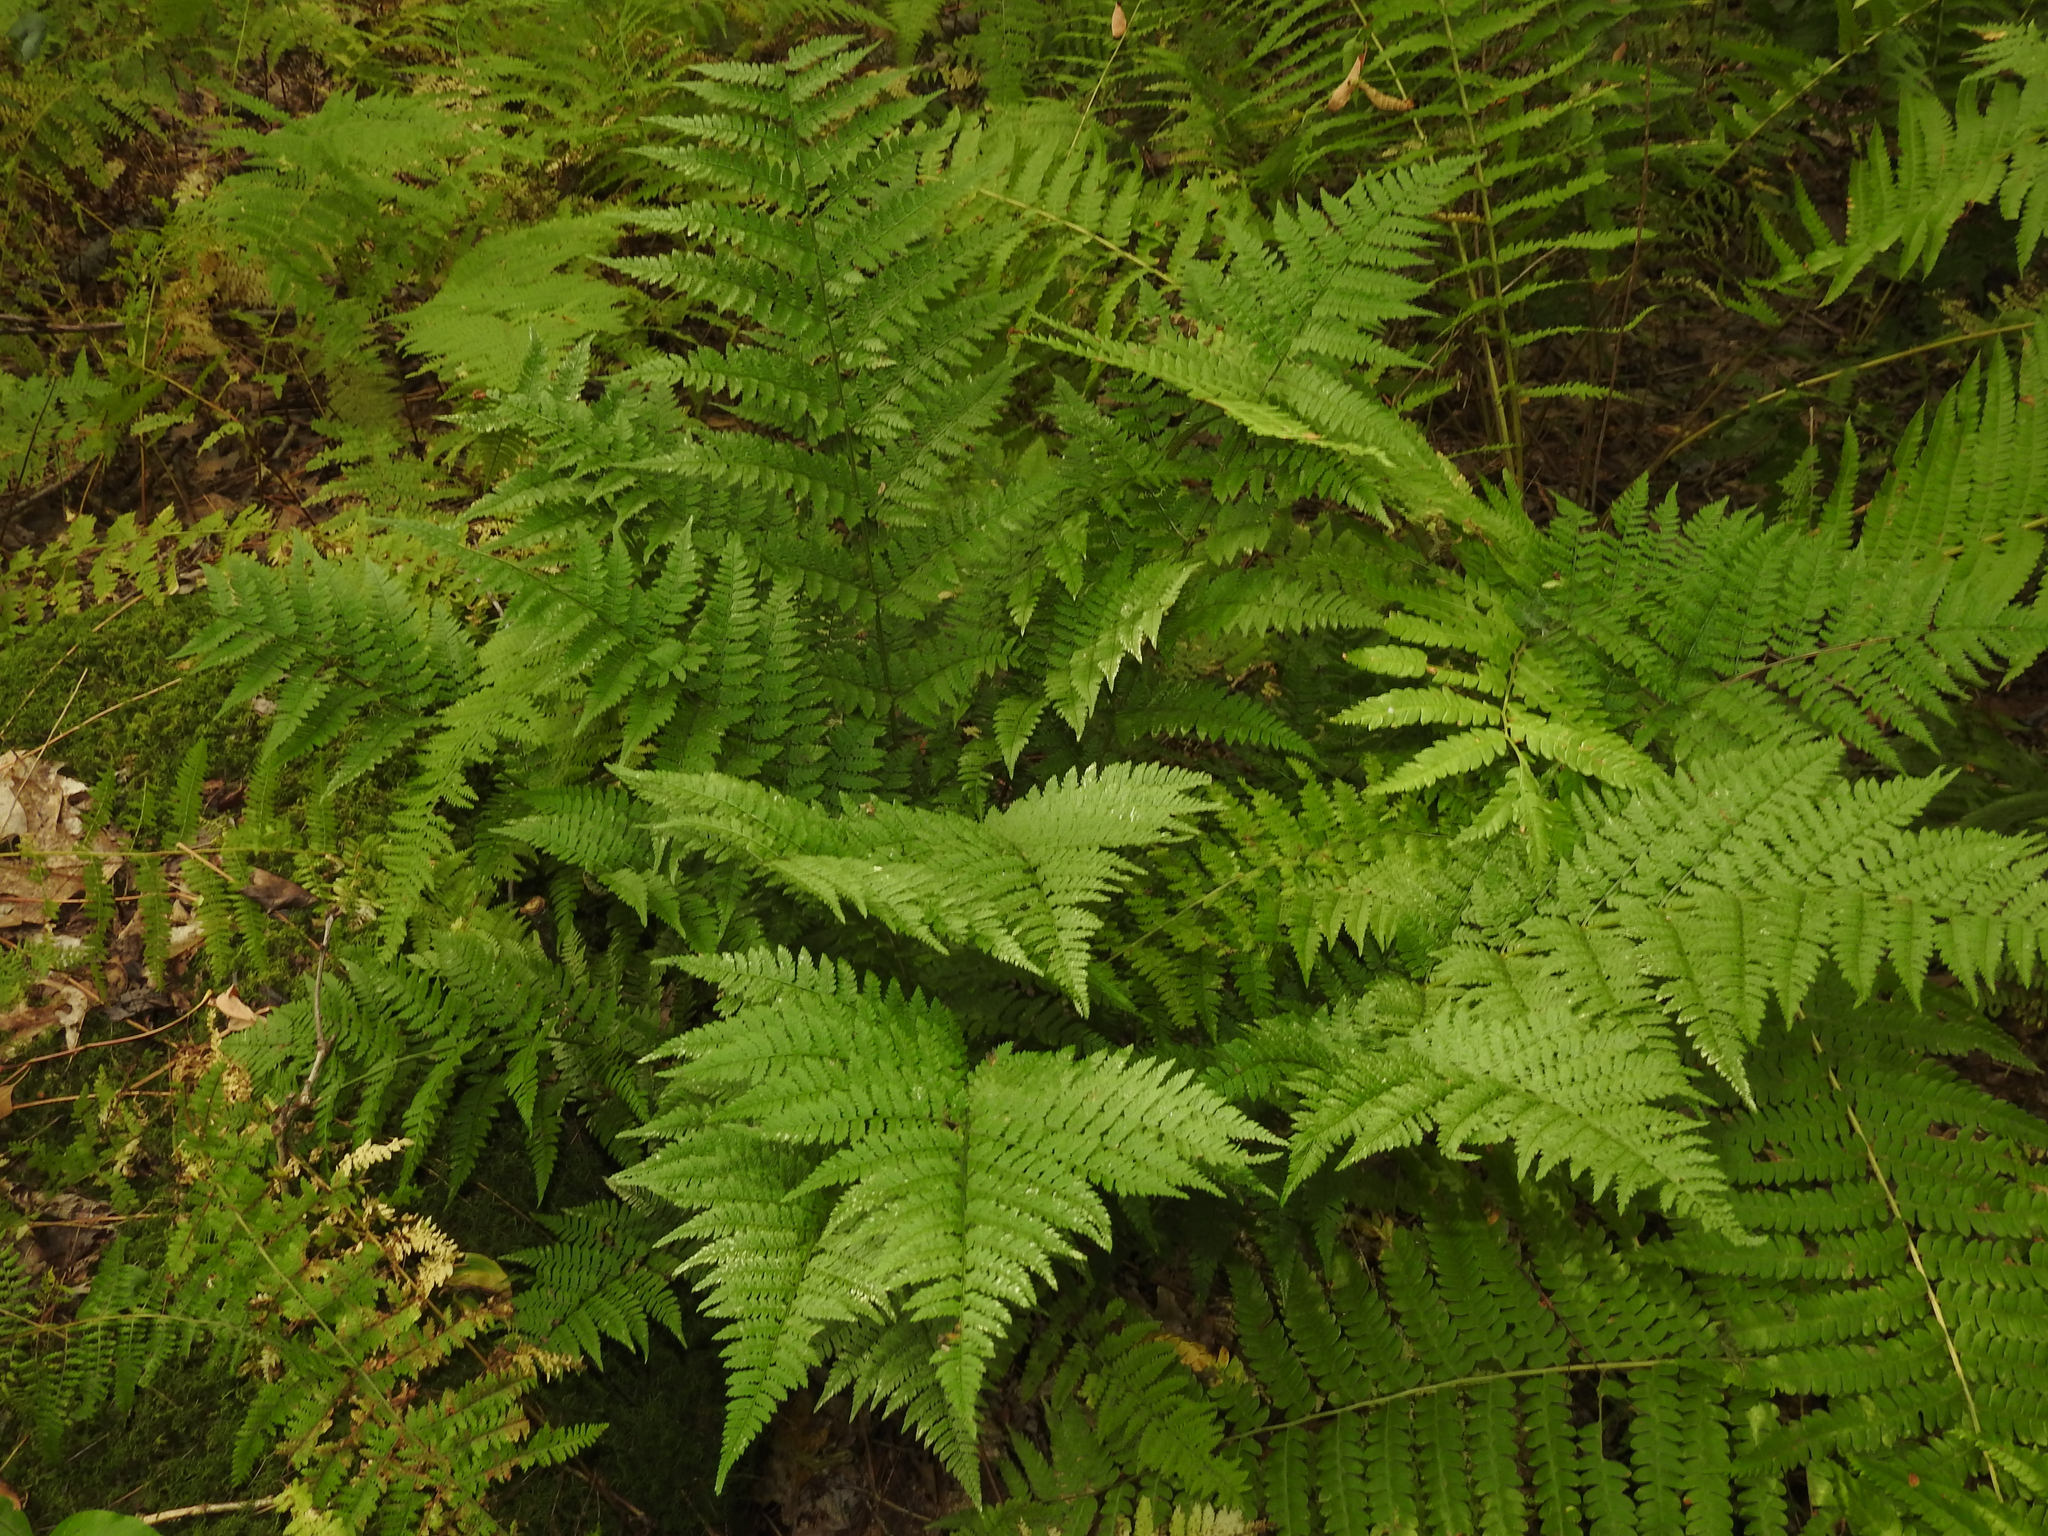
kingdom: Plantae
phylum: Tracheophyta
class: Polypodiopsida
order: Polypodiales
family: Dryopteridaceae
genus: Dryopteris
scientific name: Dryopteris carthusiana
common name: Narrow buckler-fern
